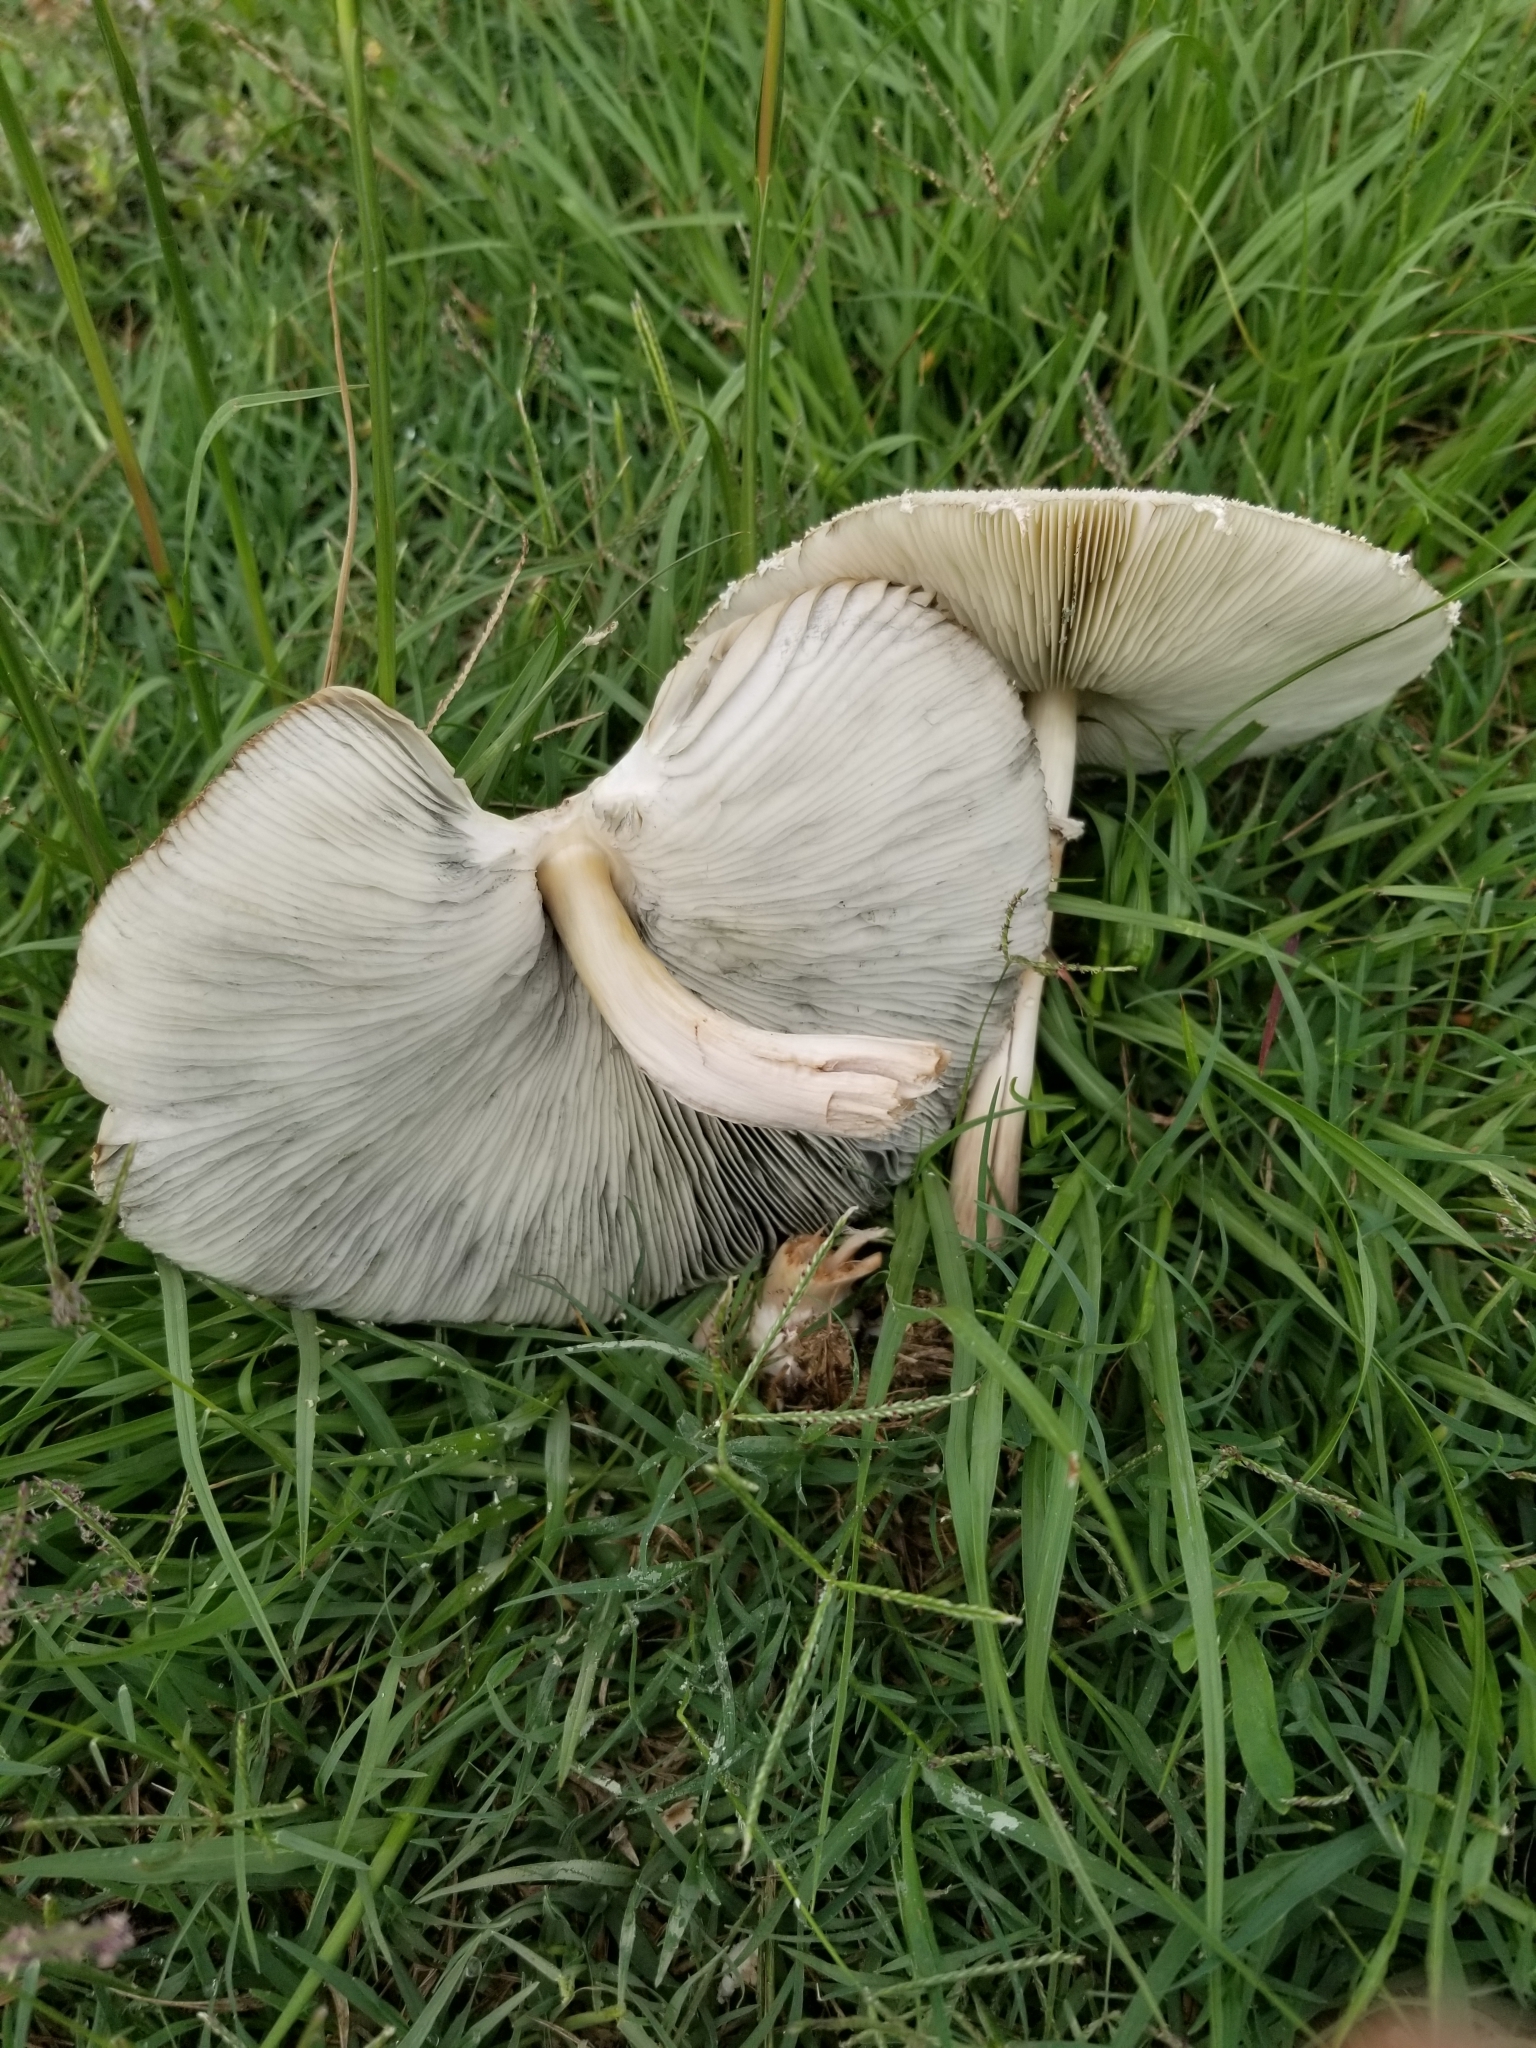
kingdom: Fungi
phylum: Basidiomycota
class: Agaricomycetes
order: Agaricales
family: Agaricaceae
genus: Chlorophyllum
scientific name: Chlorophyllum molybdites
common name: False parasol
